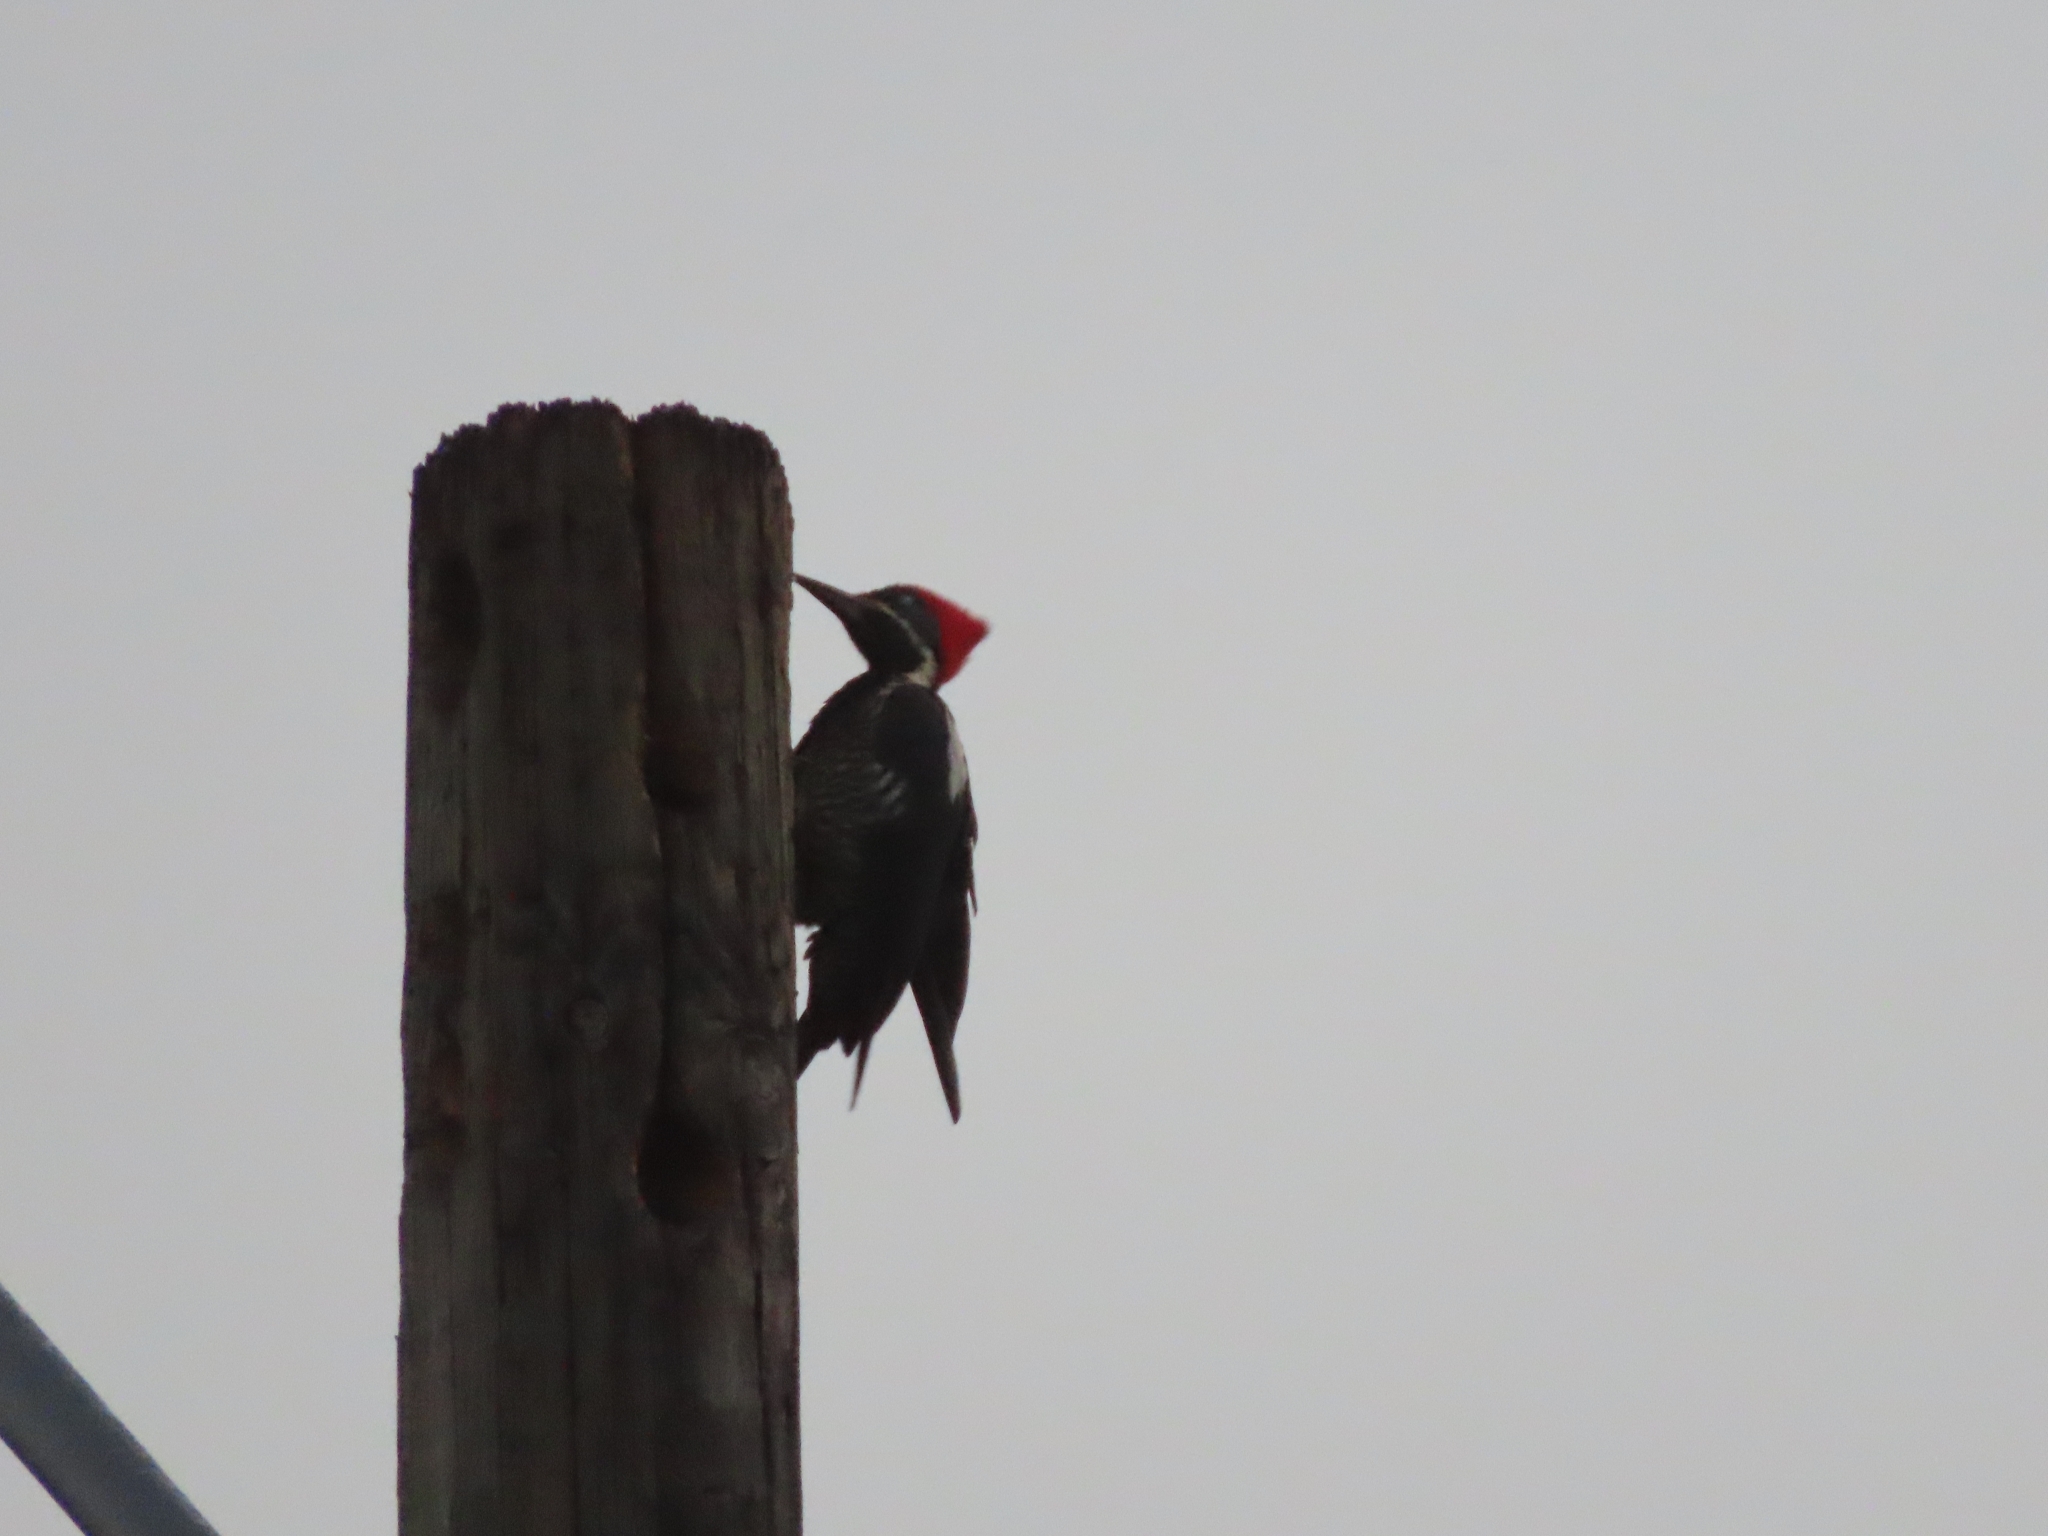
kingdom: Animalia
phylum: Chordata
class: Aves
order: Piciformes
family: Picidae
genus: Dryocopus
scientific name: Dryocopus lineatus
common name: Lineated woodpecker
